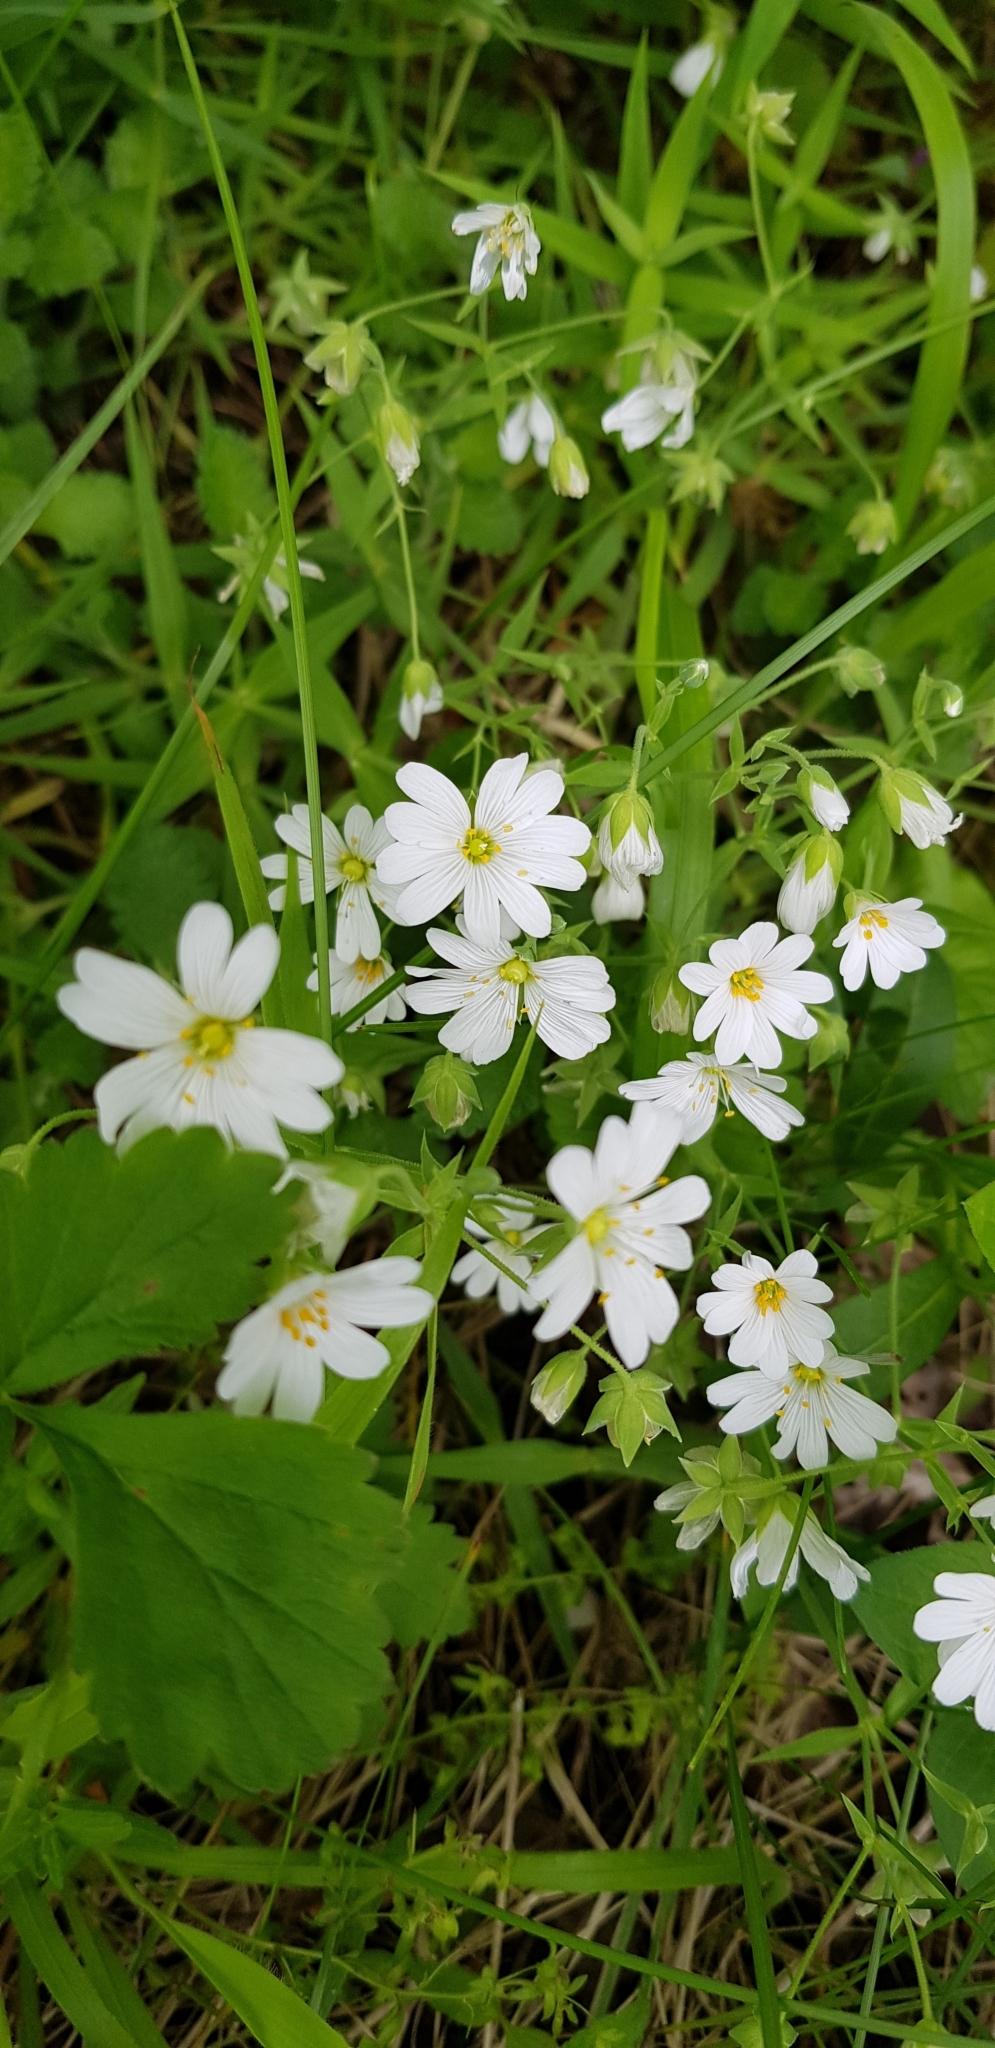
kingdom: Plantae
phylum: Tracheophyta
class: Magnoliopsida
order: Caryophyllales
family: Caryophyllaceae
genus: Rabelera
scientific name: Rabelera holostea
